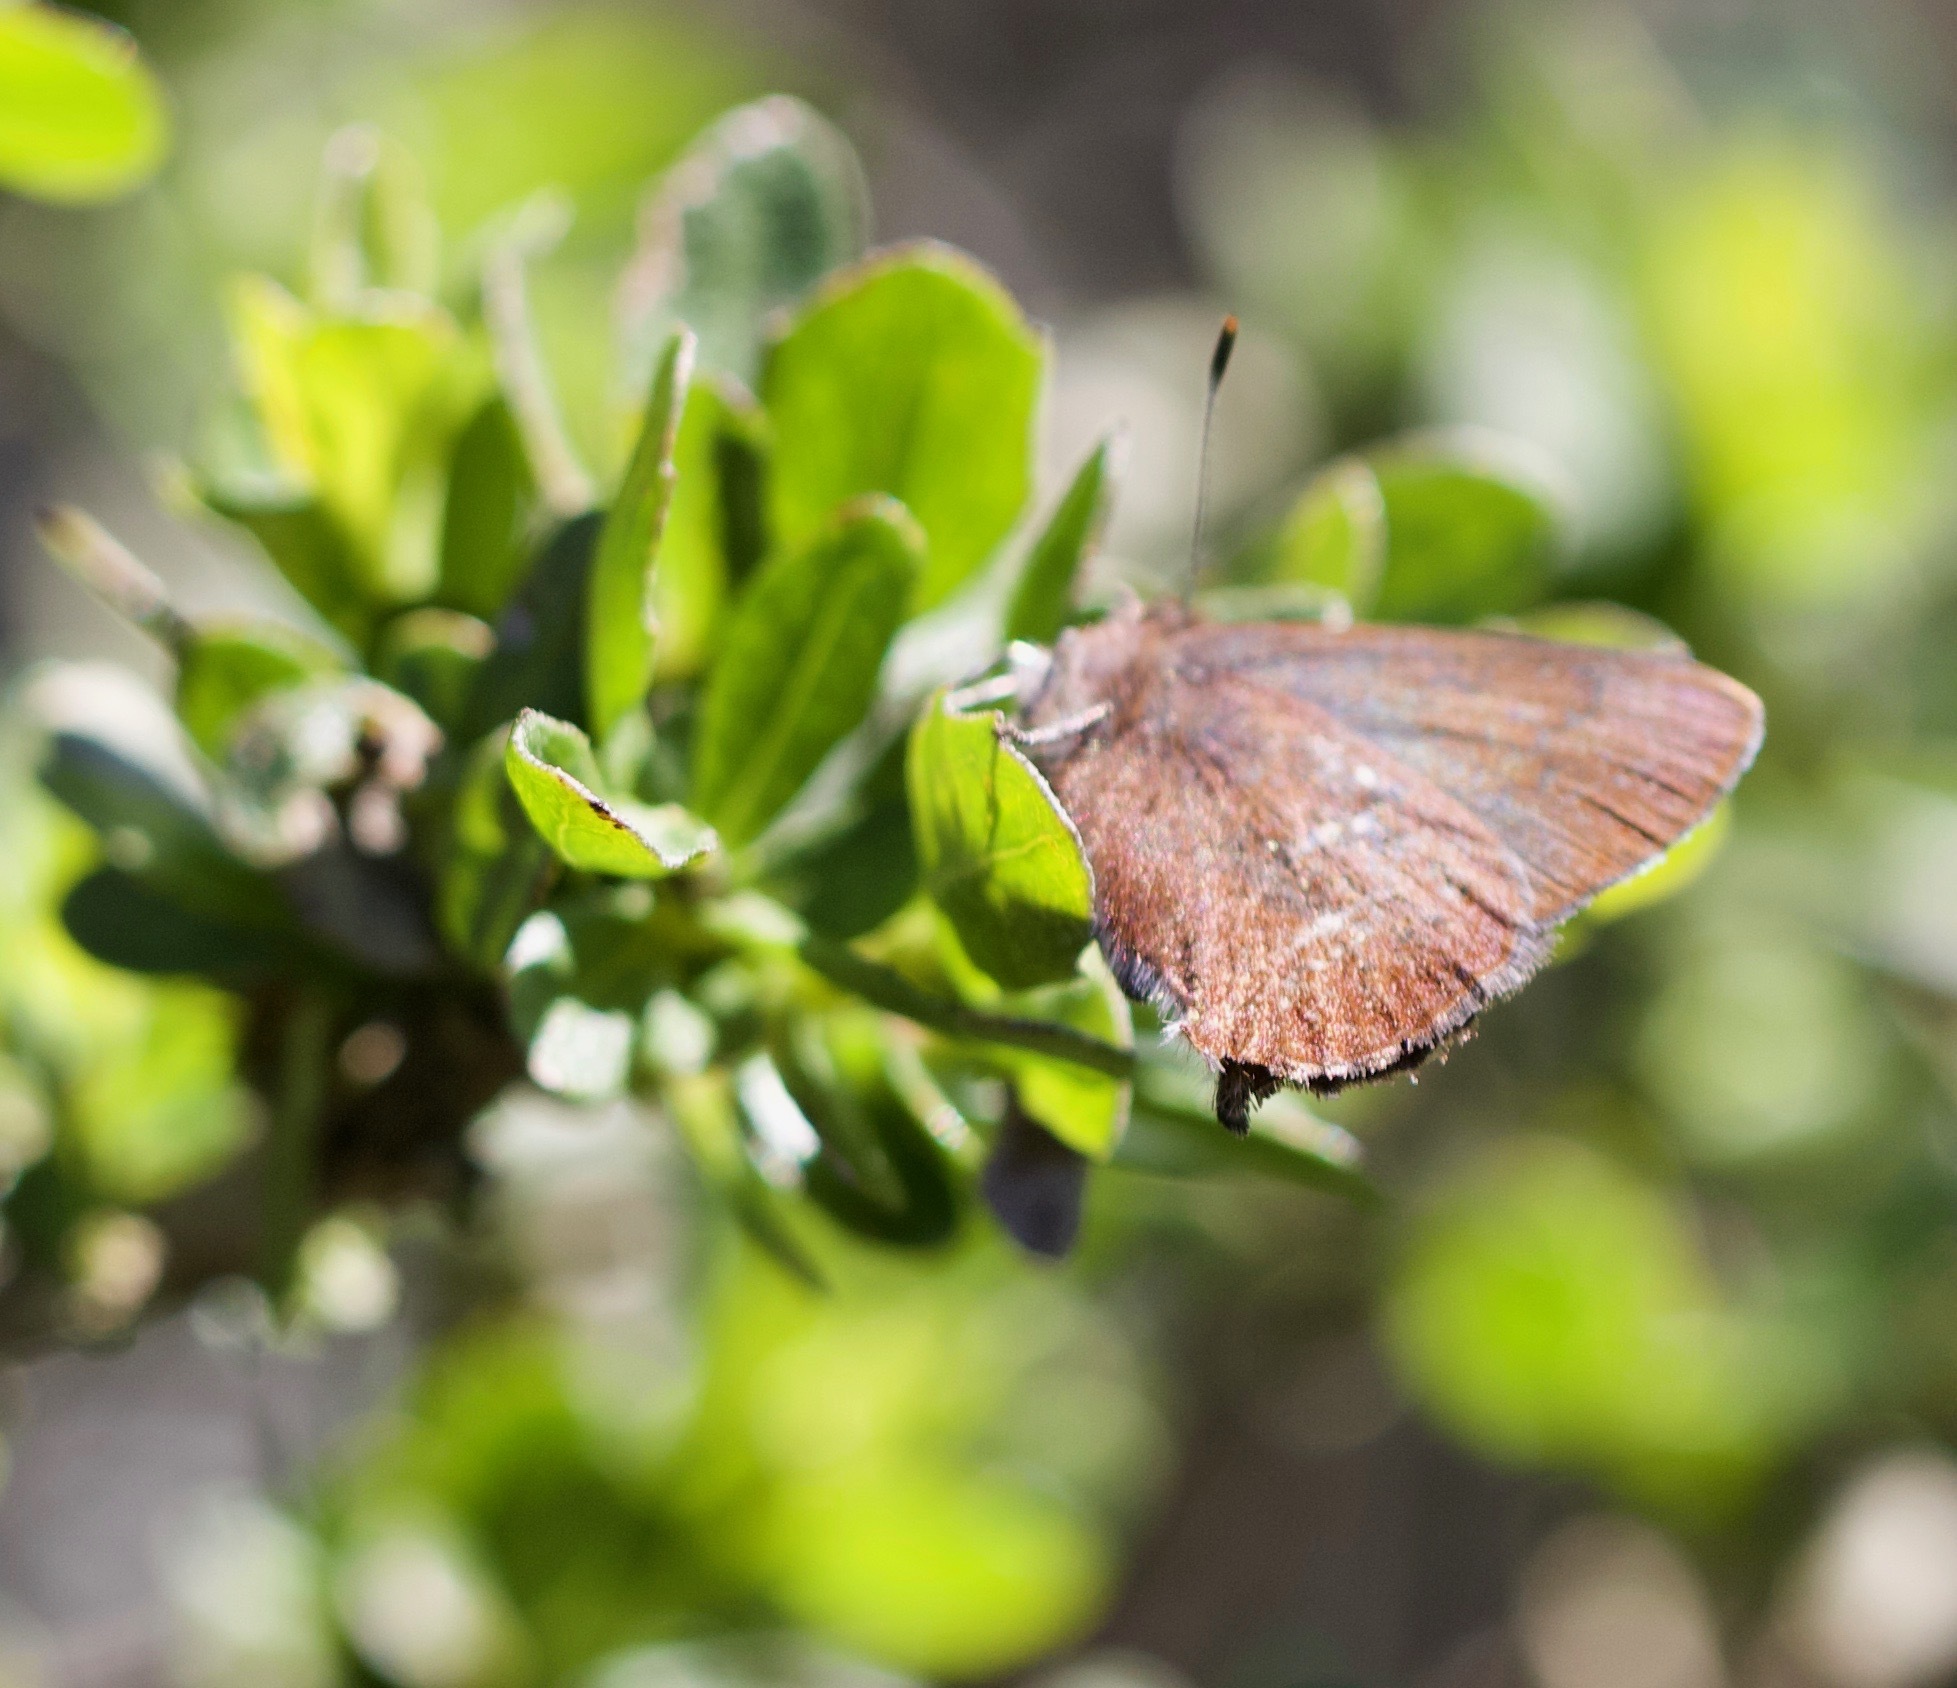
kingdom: Animalia
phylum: Arthropoda
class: Insecta
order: Lepidoptera
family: Lycaenidae
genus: Incisalia
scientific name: Incisalia irioides
